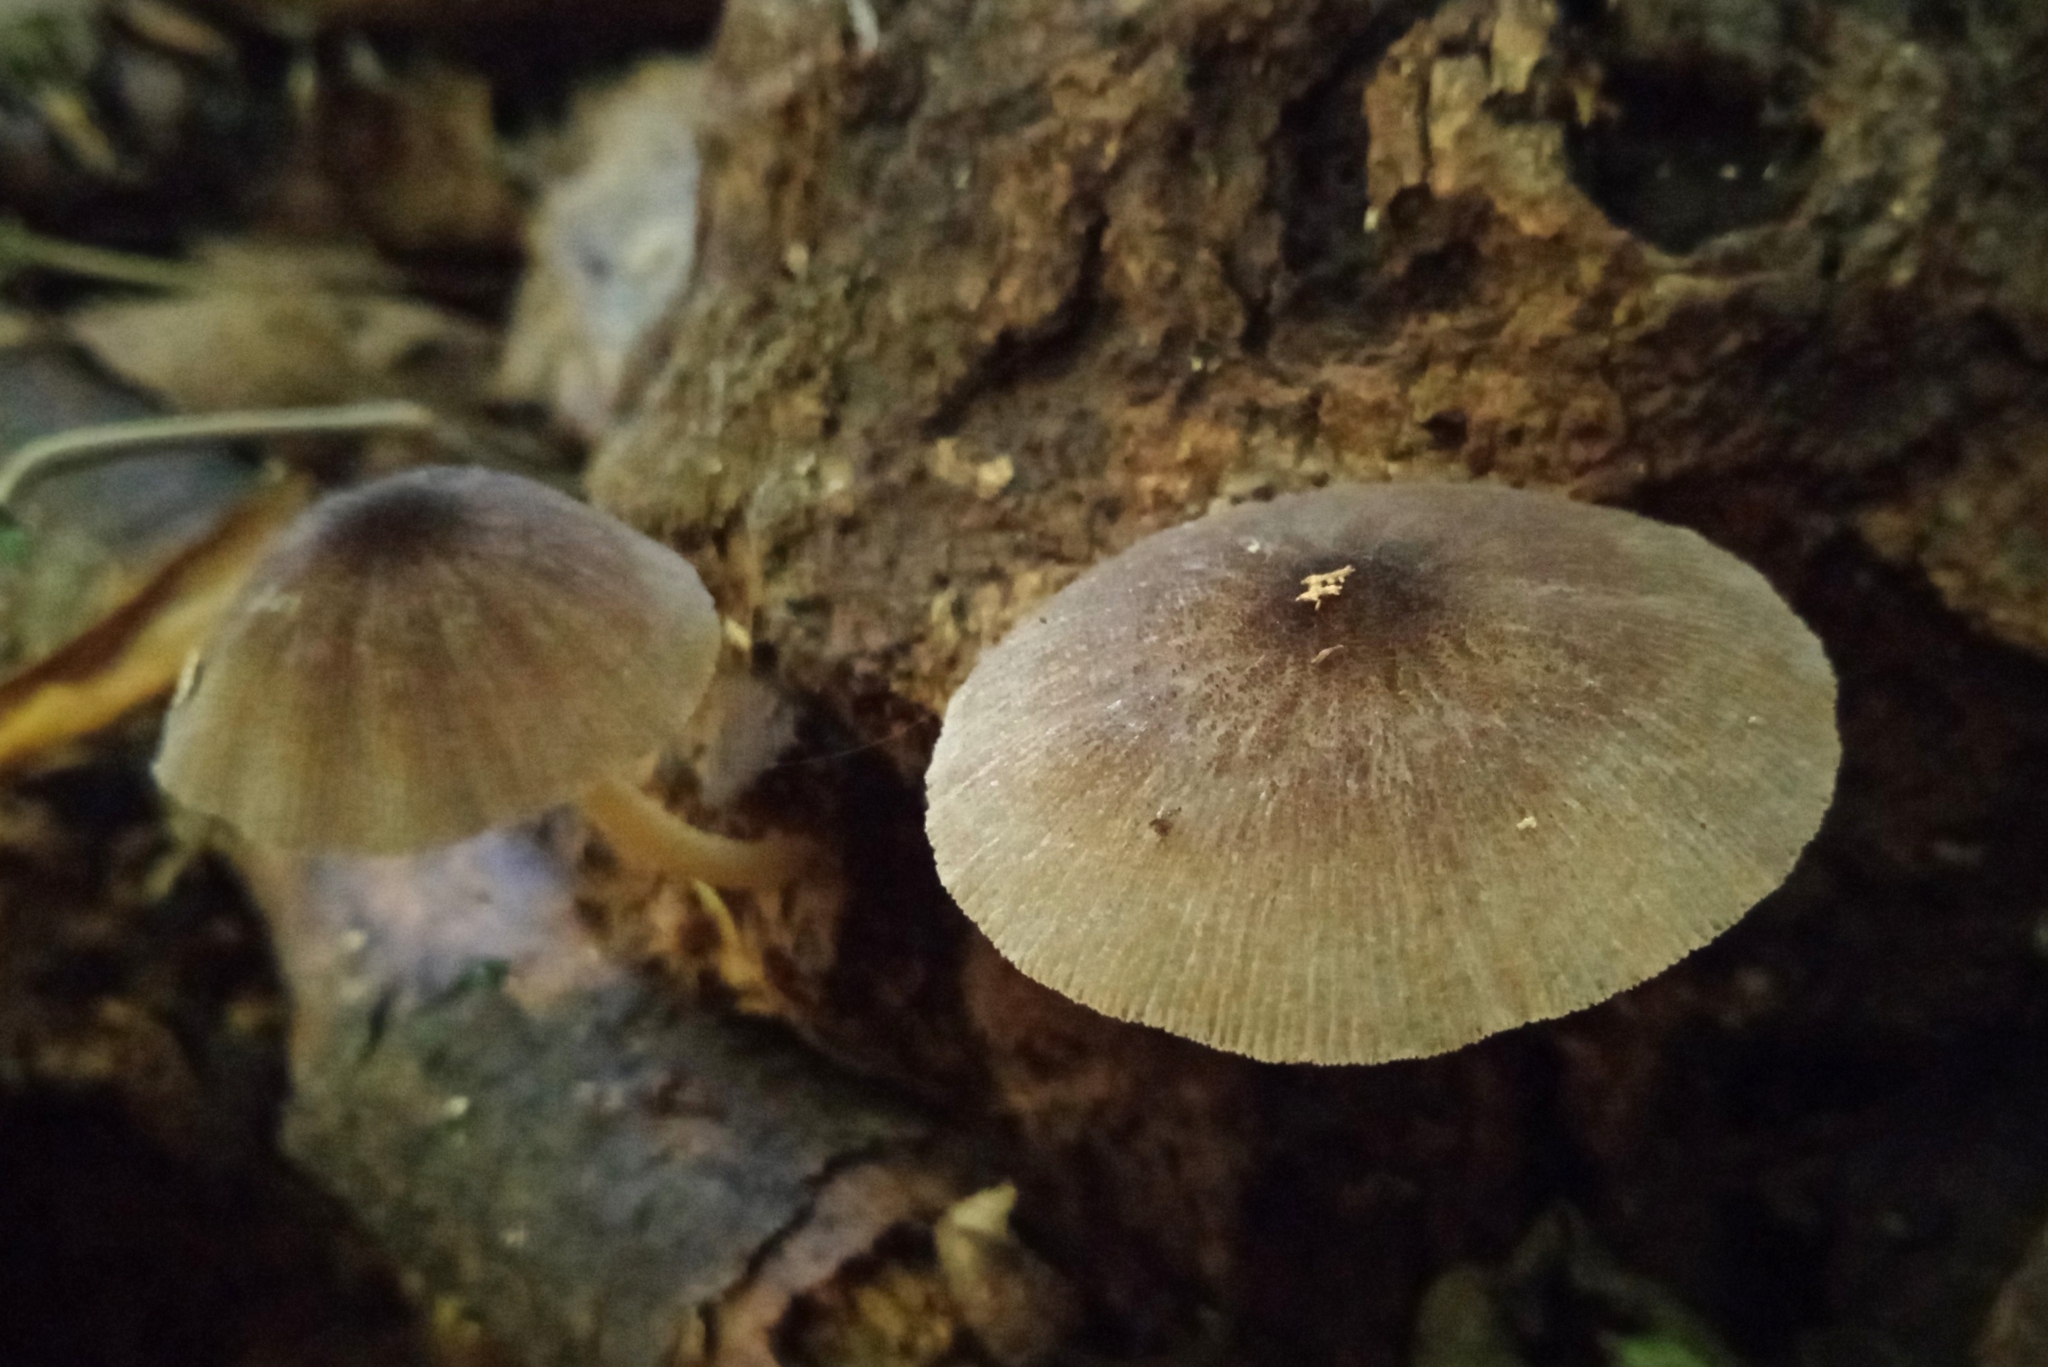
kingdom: Fungi
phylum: Basidiomycota
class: Agaricomycetes
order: Agaricales
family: Pluteaceae
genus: Pluteus
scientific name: Pluteus longistriatus
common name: Pleated pluteus
